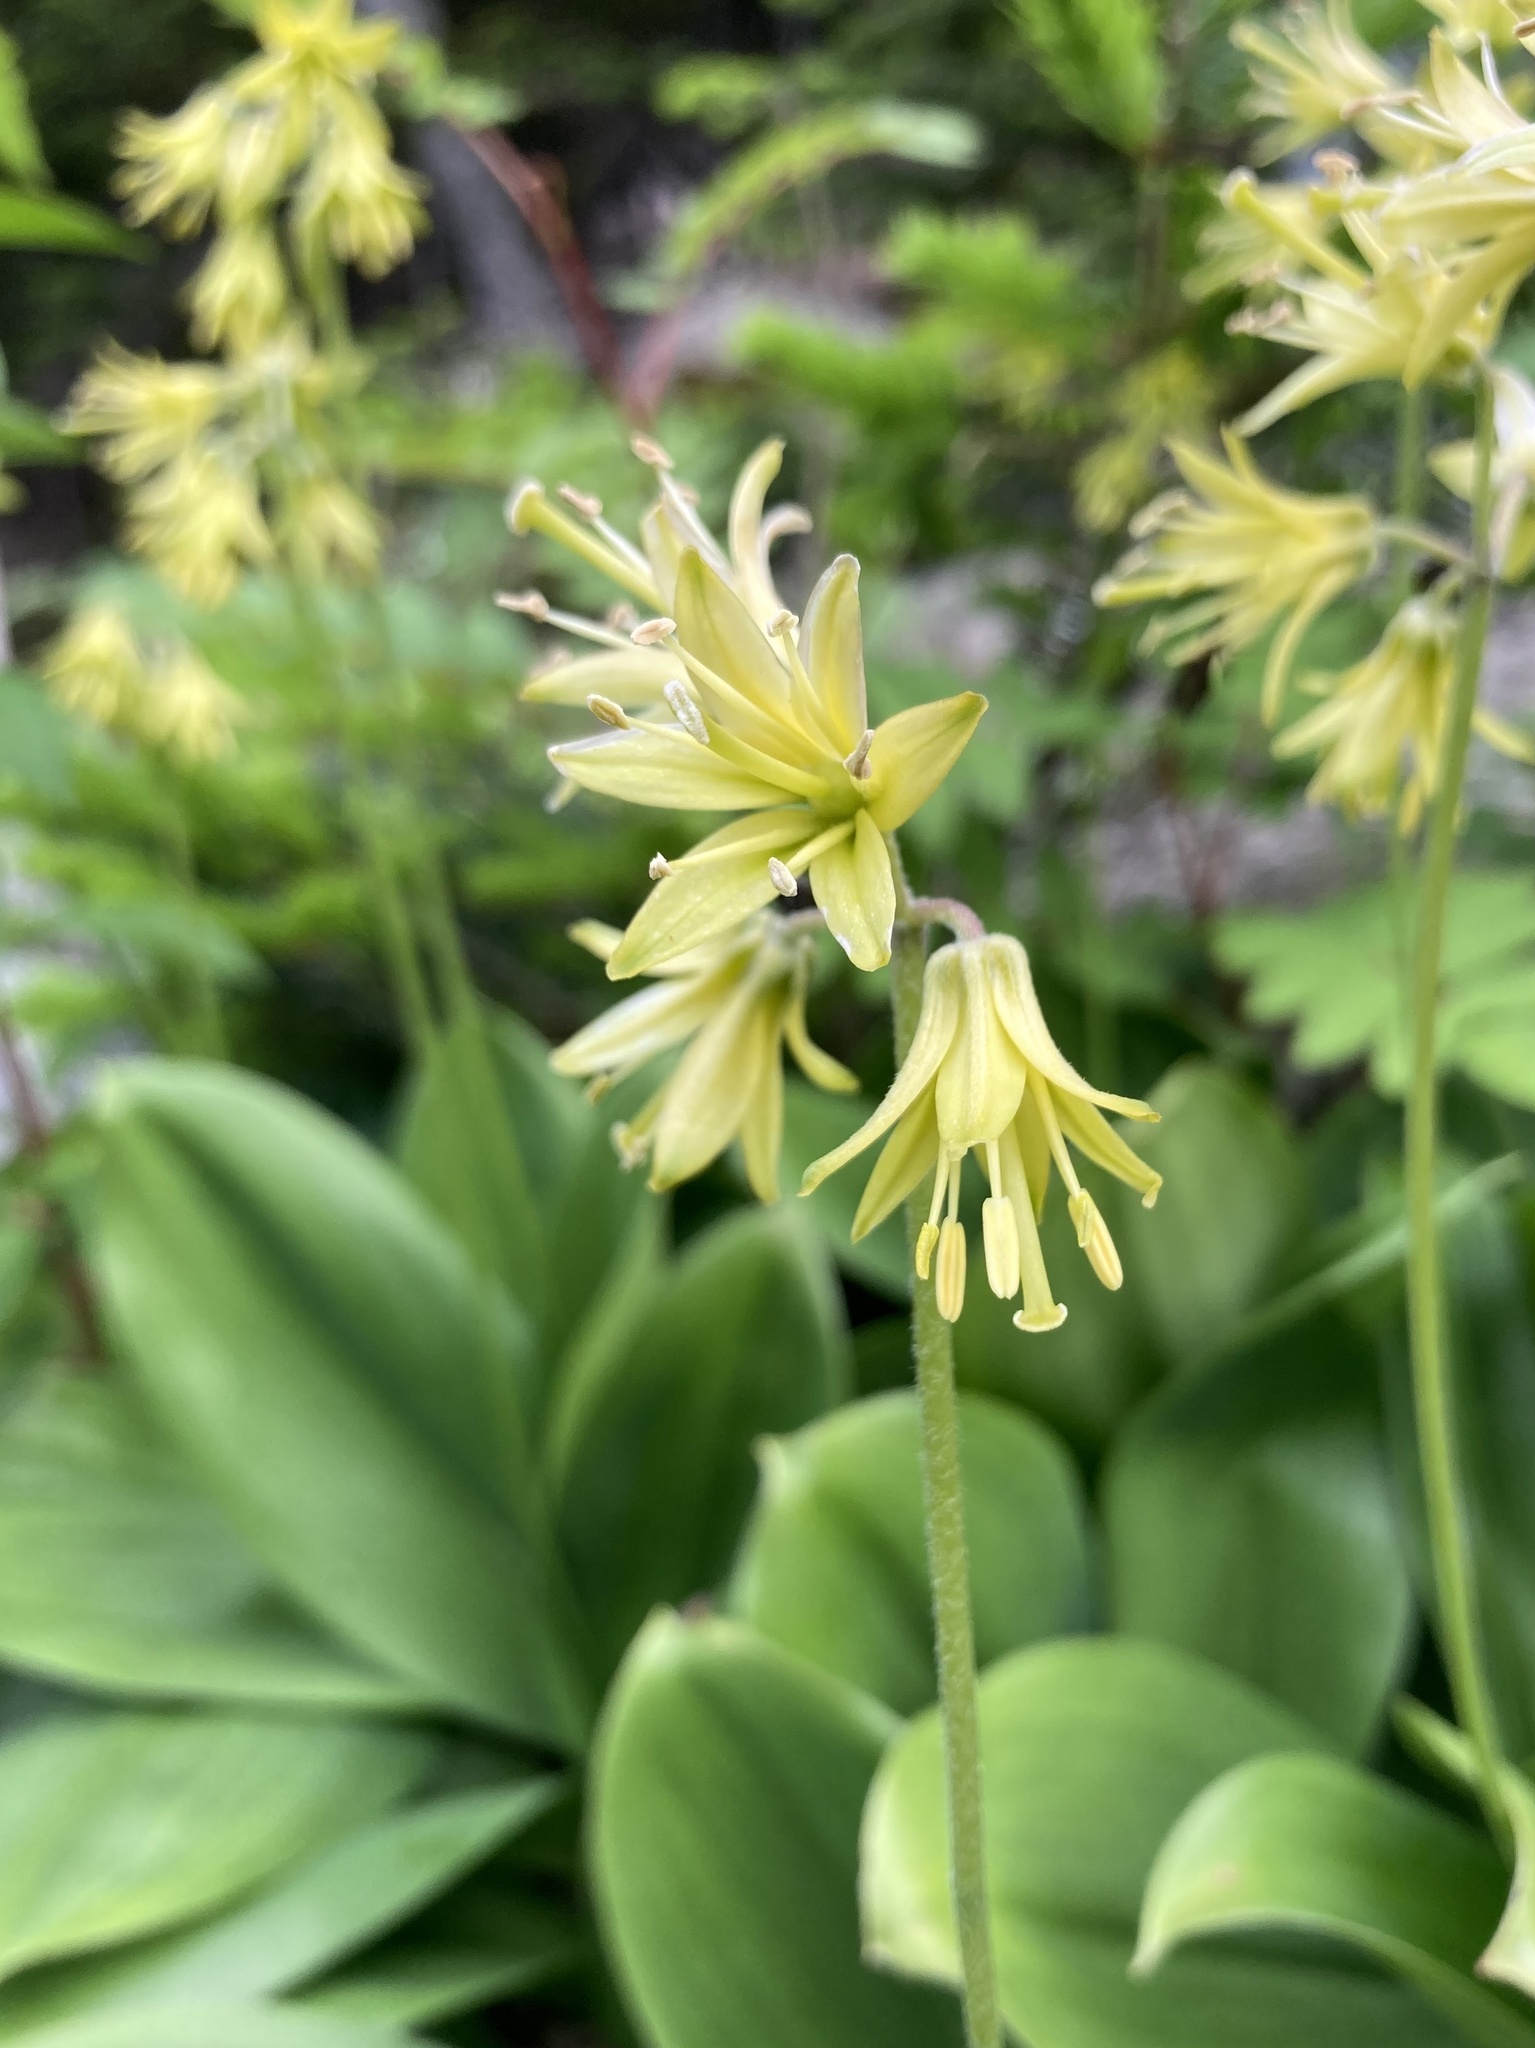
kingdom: Plantae
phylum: Tracheophyta
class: Liliopsida
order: Liliales
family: Liliaceae
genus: Clintonia
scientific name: Clintonia borealis
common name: Yellow clintonia
